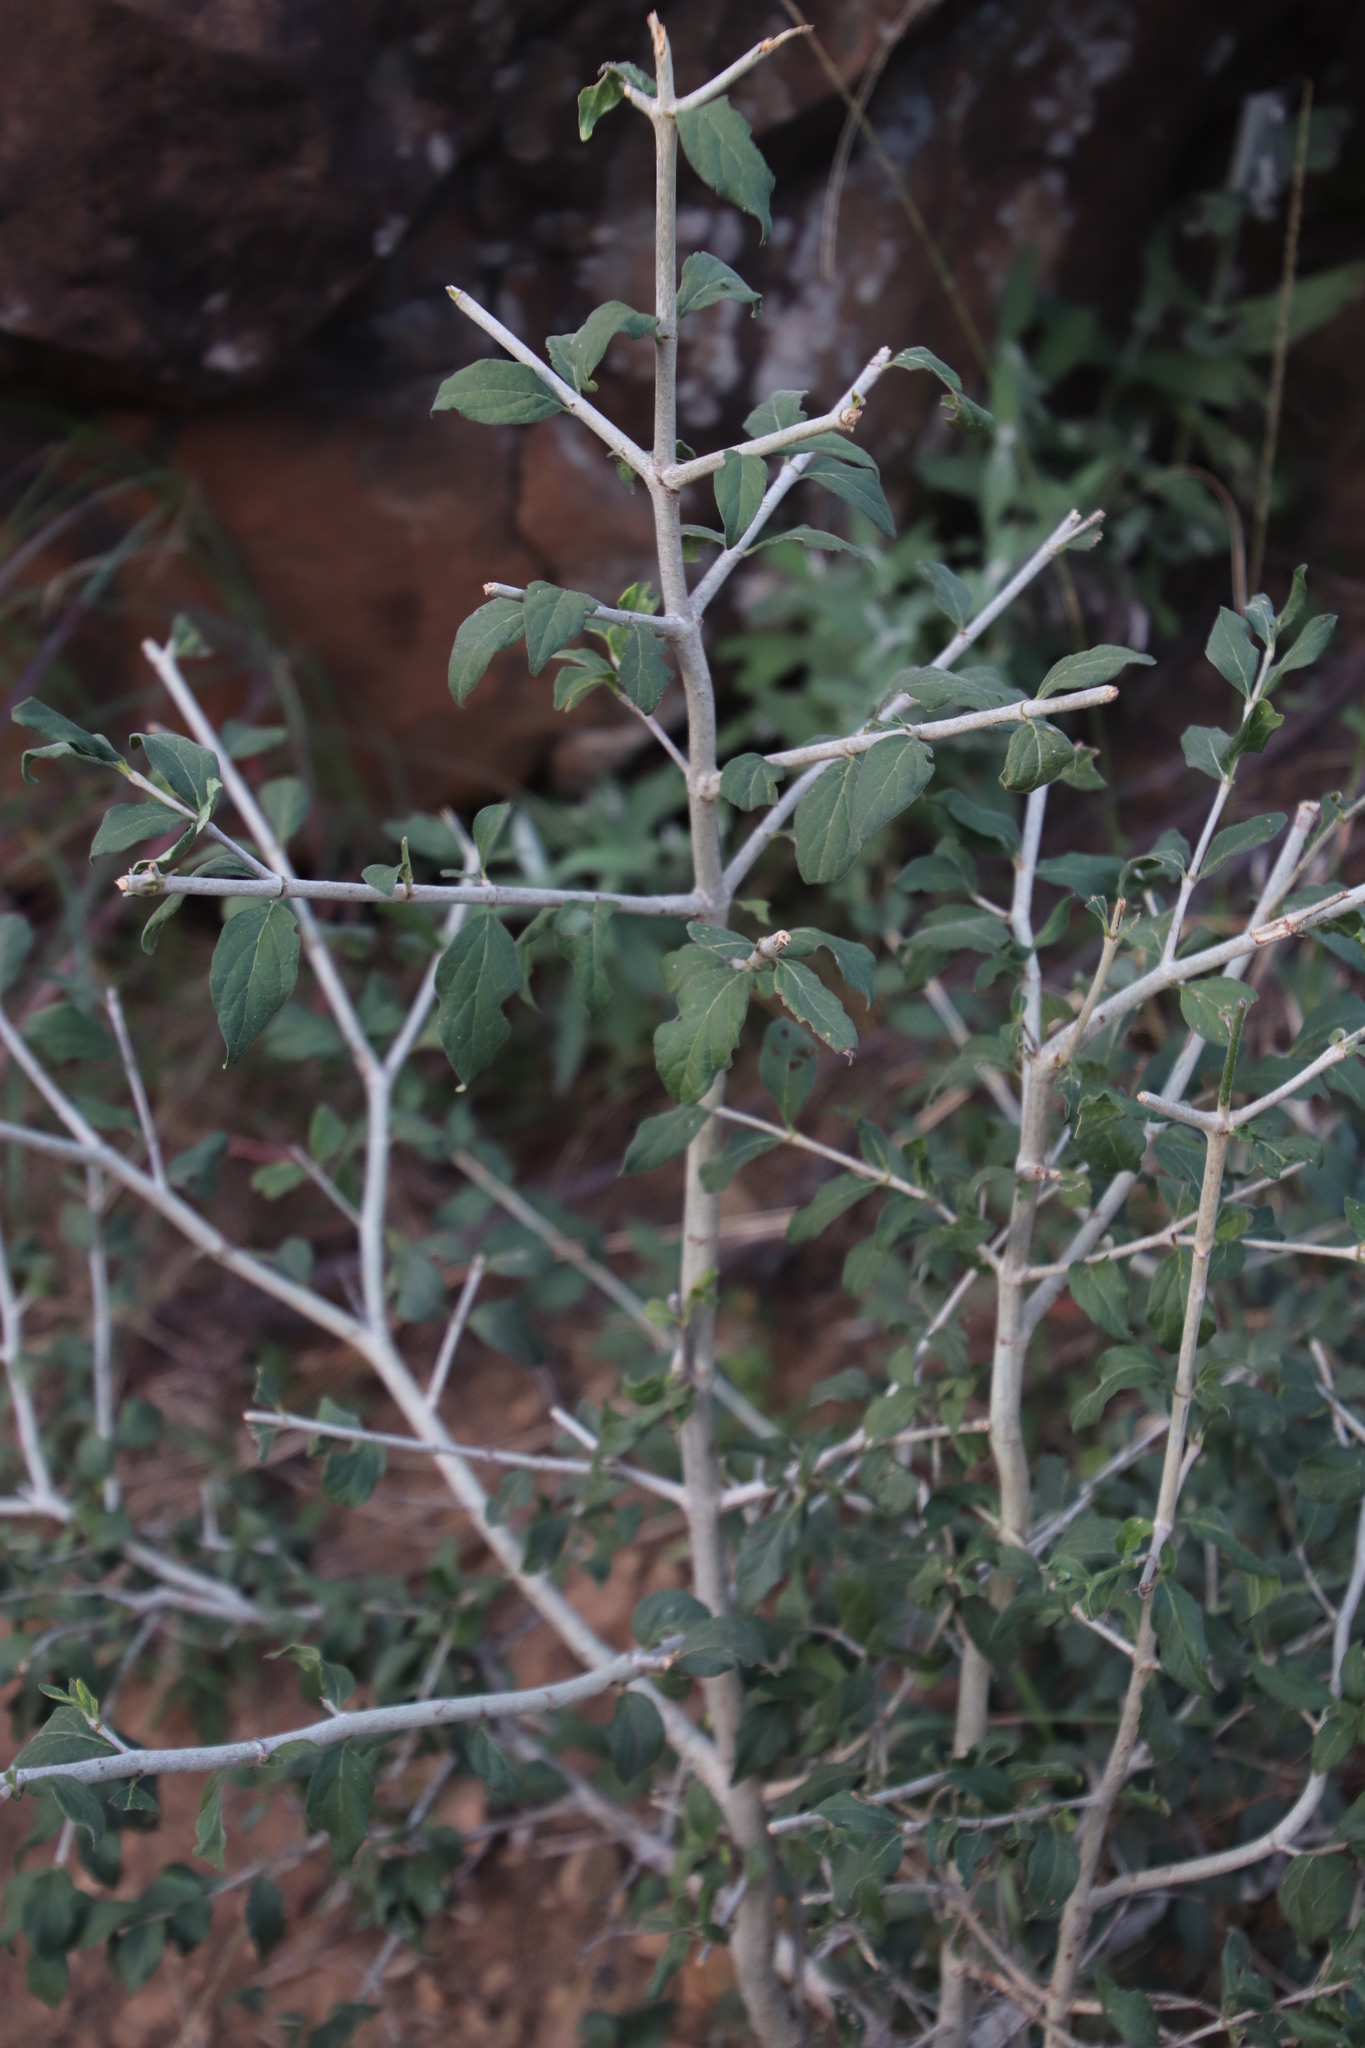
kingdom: Plantae
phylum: Tracheophyta
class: Magnoliopsida
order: Gentianales
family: Rubiaceae
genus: Afrocanthium
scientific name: Afrocanthium mundianum
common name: Rock-alder
